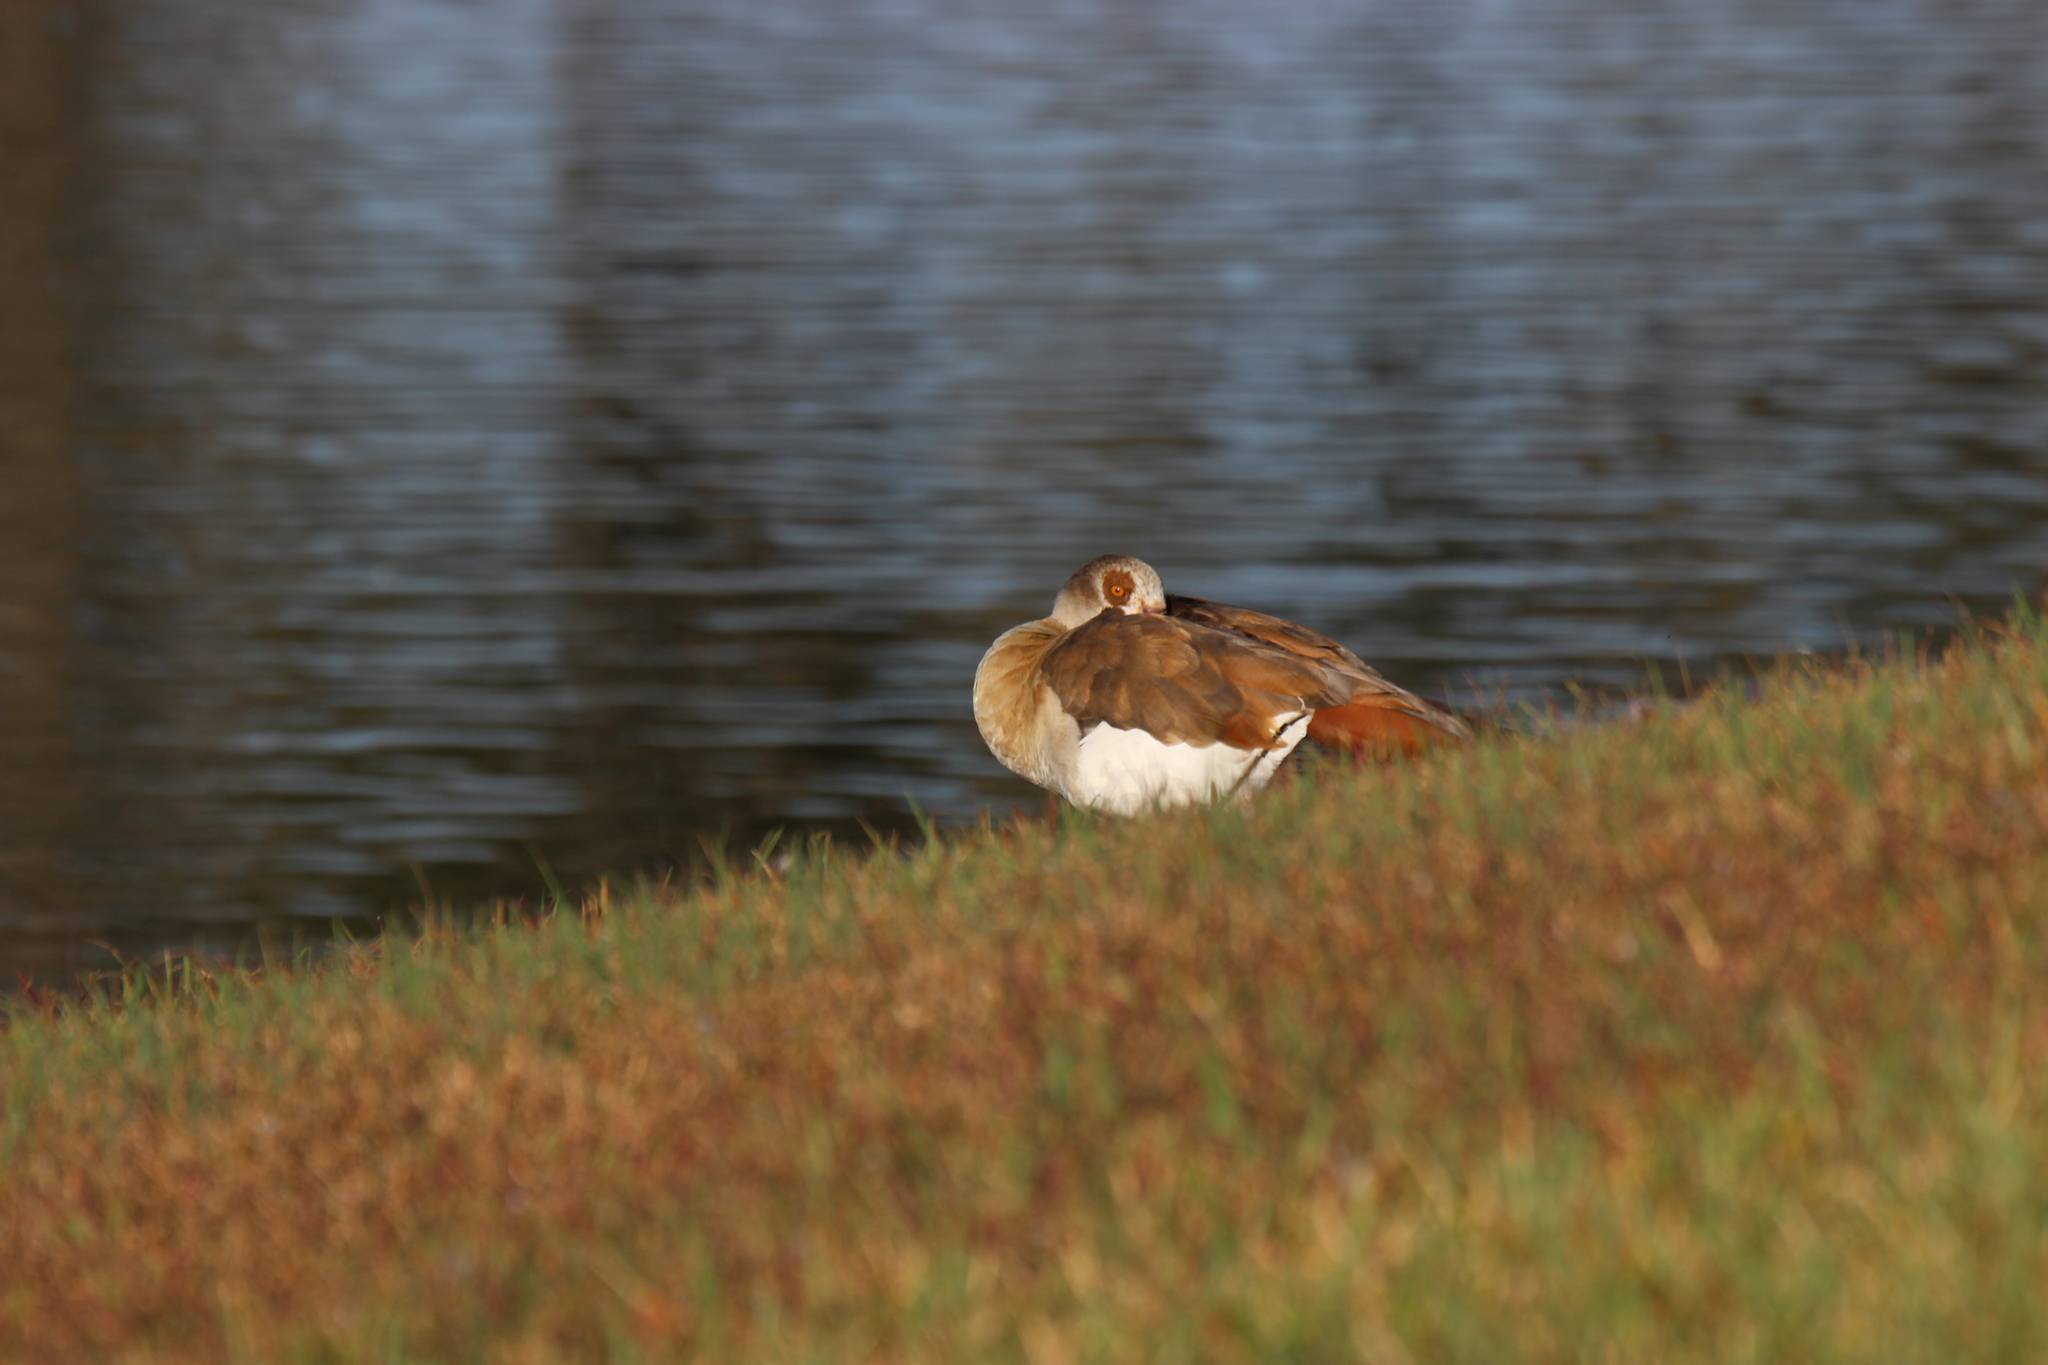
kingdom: Animalia
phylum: Chordata
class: Aves
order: Anseriformes
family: Anatidae
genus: Alopochen
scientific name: Alopochen aegyptiaca
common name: Egyptian goose
